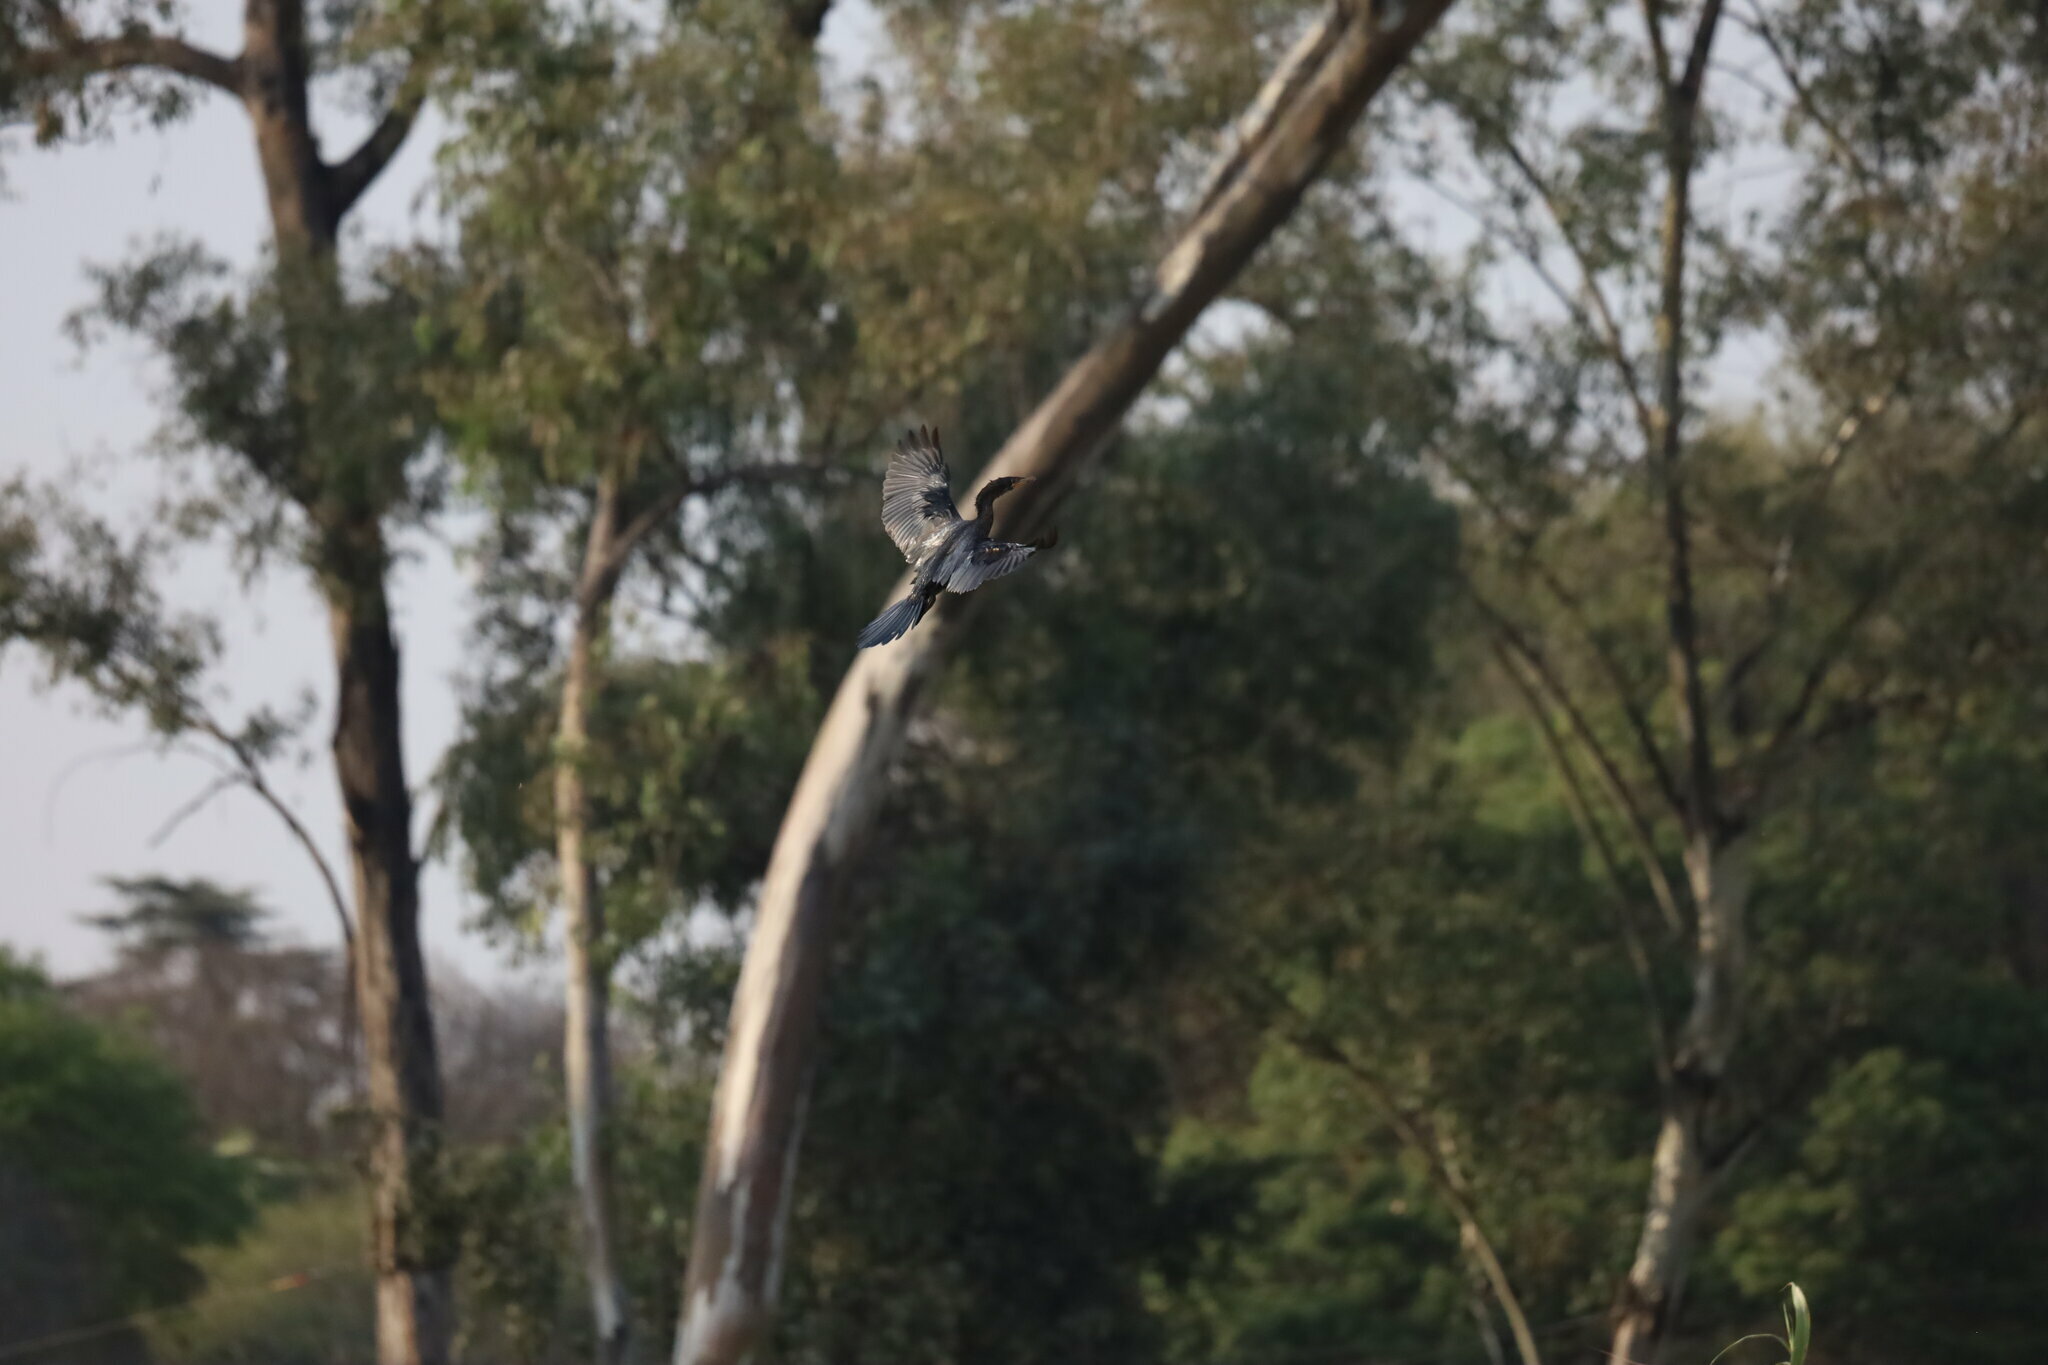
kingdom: Animalia
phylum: Chordata
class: Aves
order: Suliformes
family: Phalacrocoracidae
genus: Microcarbo
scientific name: Microcarbo africanus
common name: Long-tailed cormorant
